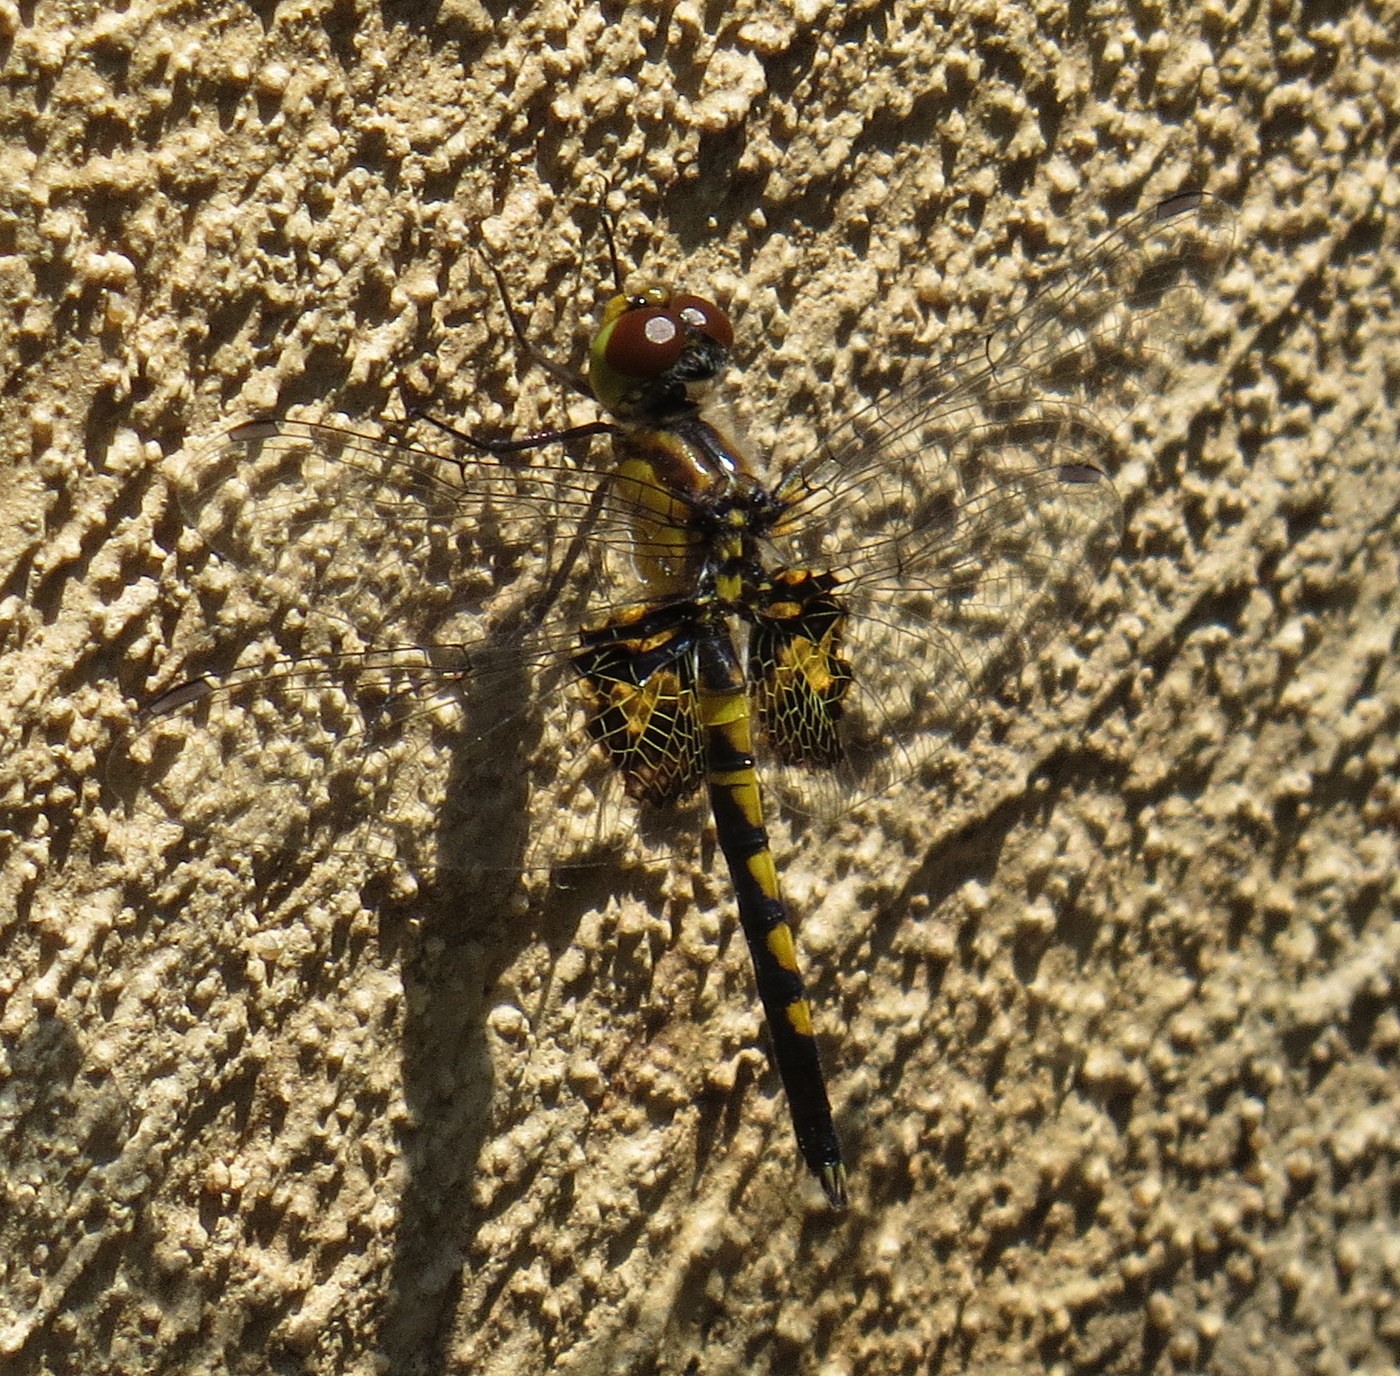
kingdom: Animalia
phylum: Arthropoda
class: Insecta
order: Odonata
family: Libellulidae
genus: Celithemis
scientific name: Celithemis martha
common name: Martha's pennant
